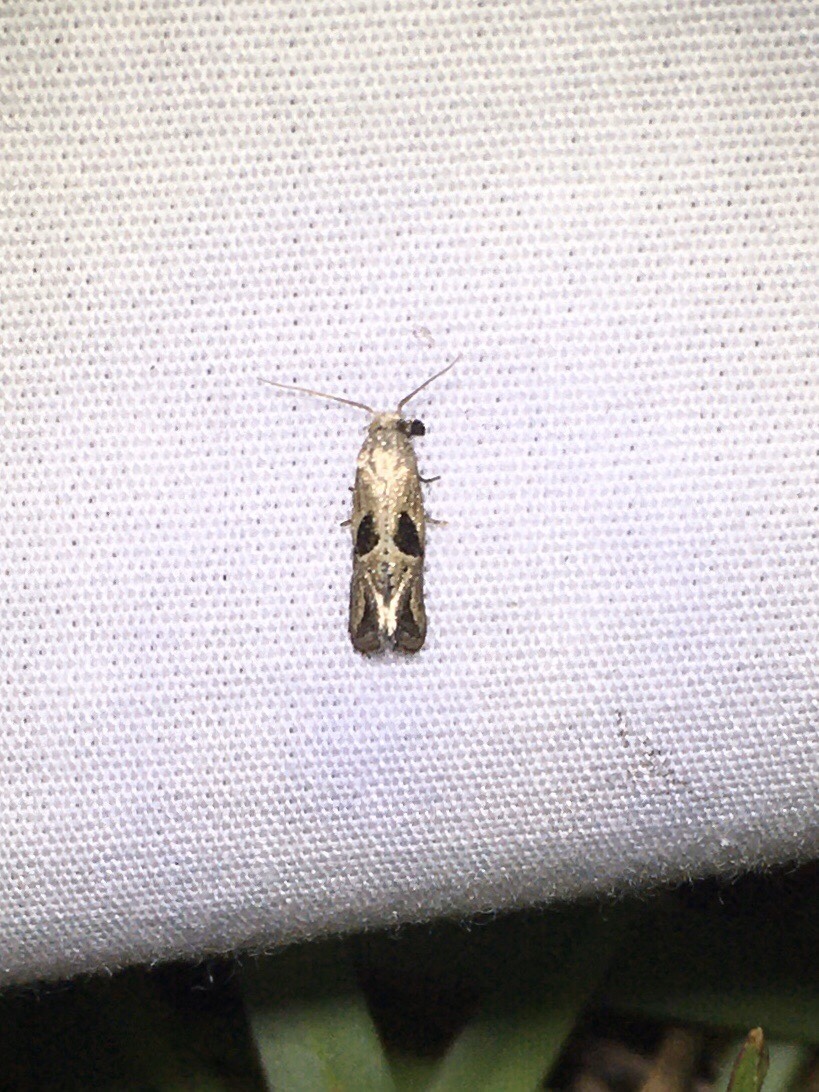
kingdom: Animalia
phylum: Arthropoda
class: Insecta
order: Lepidoptera
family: Tortricidae
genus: Eugnosta
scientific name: Eugnosta bimaculana
